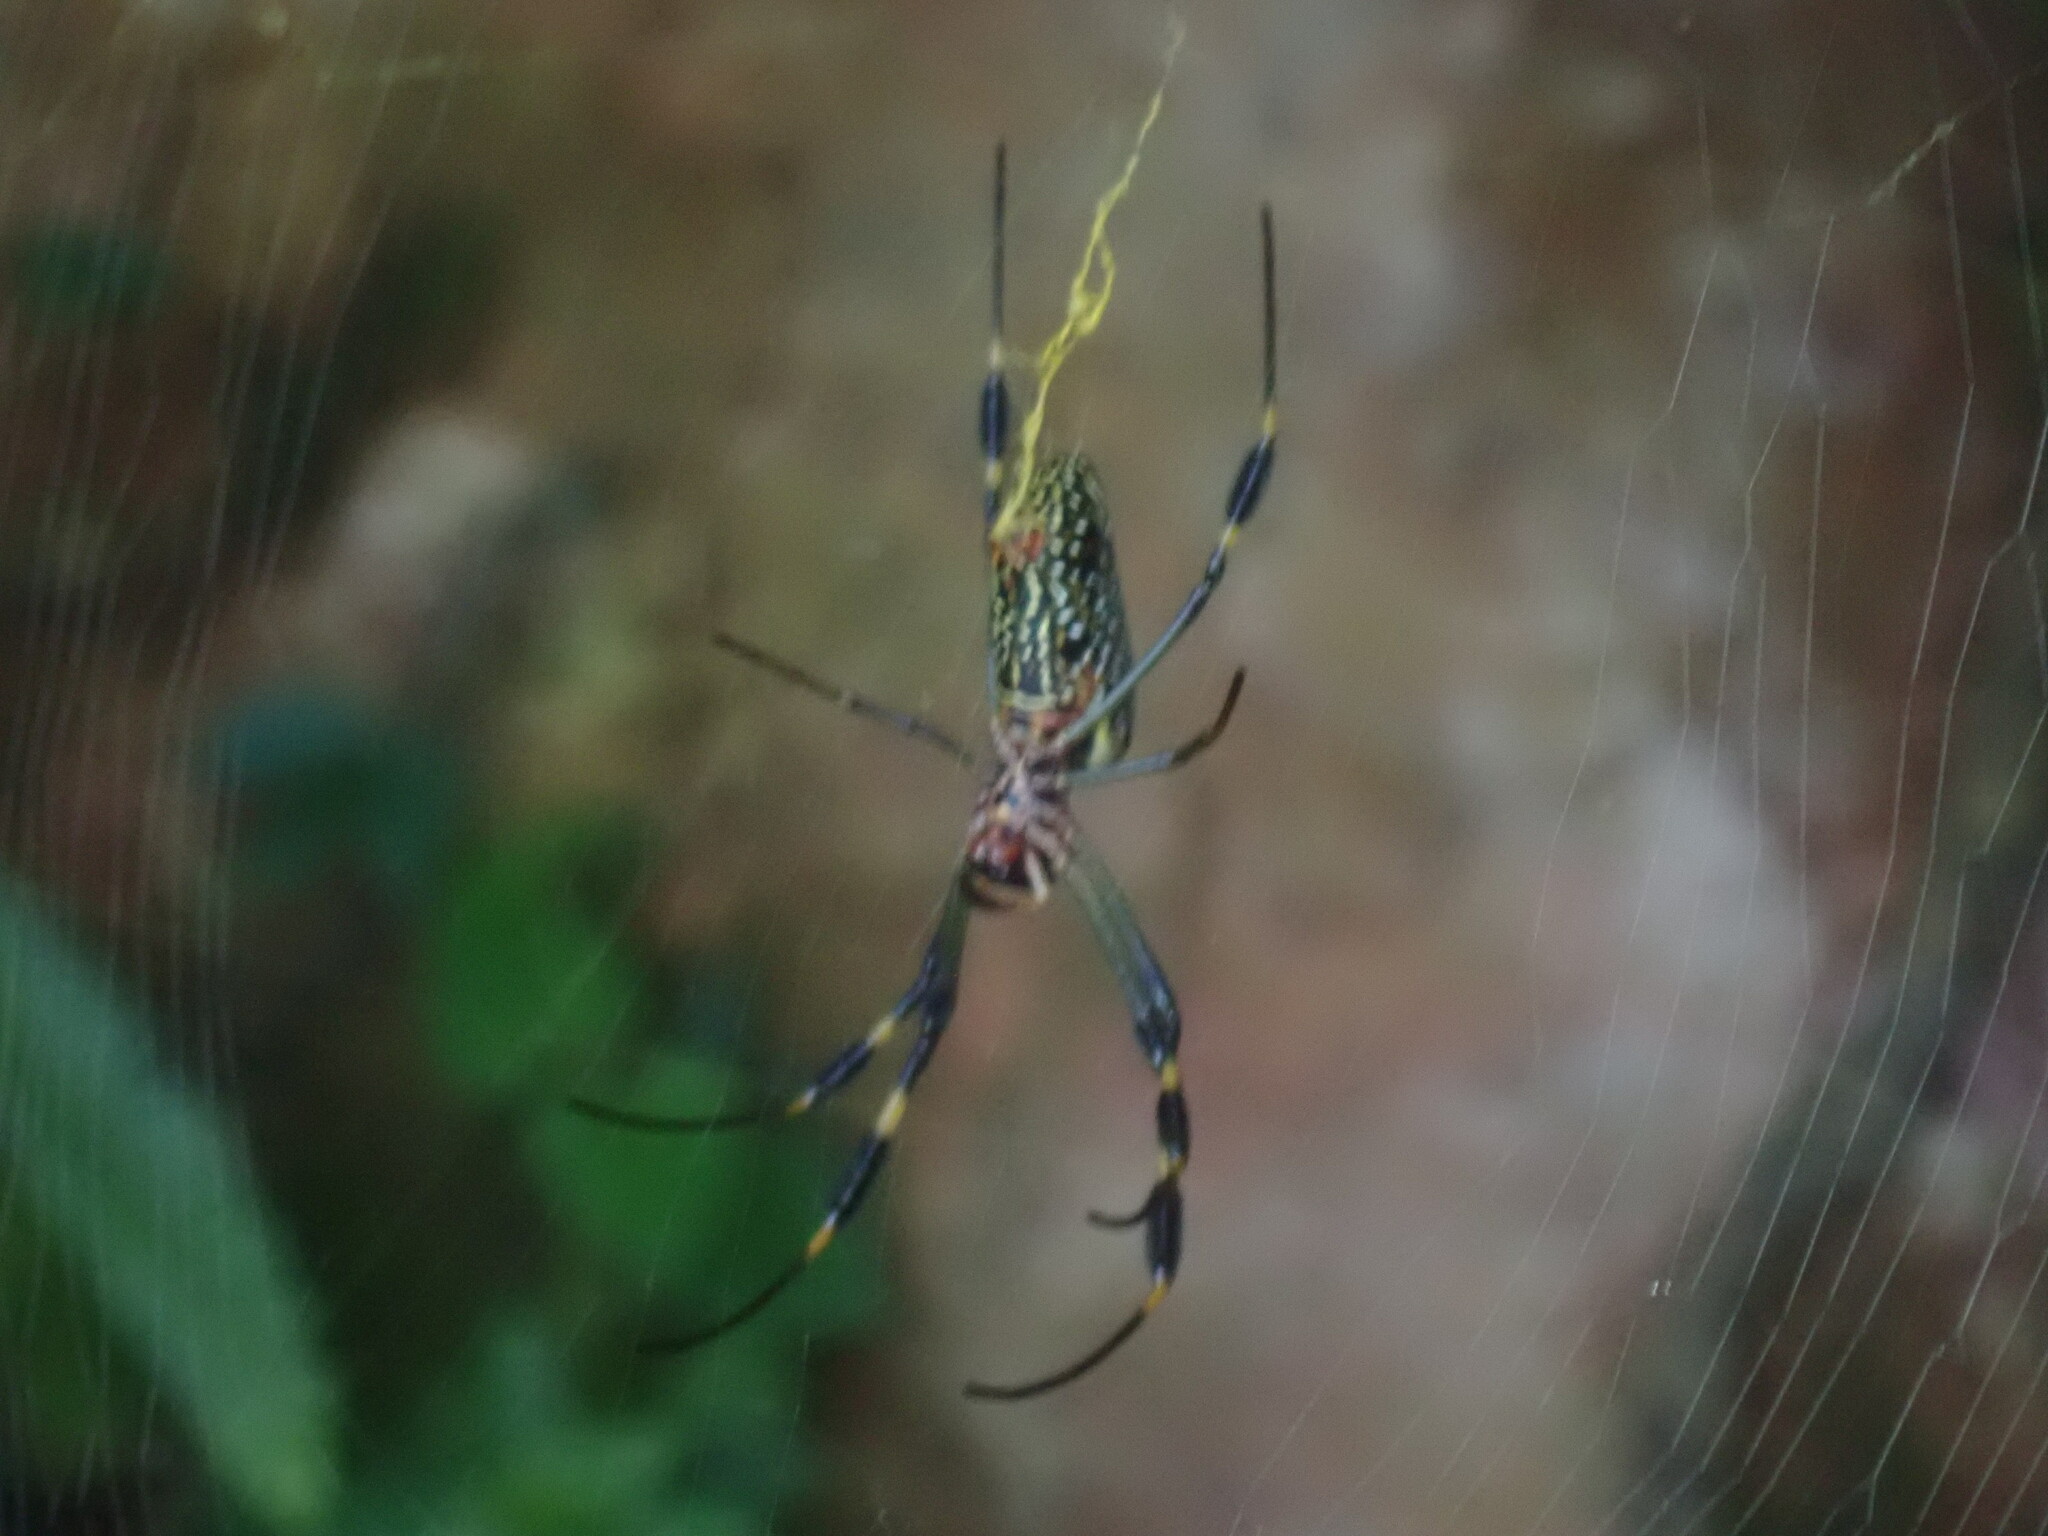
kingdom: Animalia
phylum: Arthropoda
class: Arachnida
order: Araneae
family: Araneidae
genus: Trichonephila
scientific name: Trichonephila clavipes
